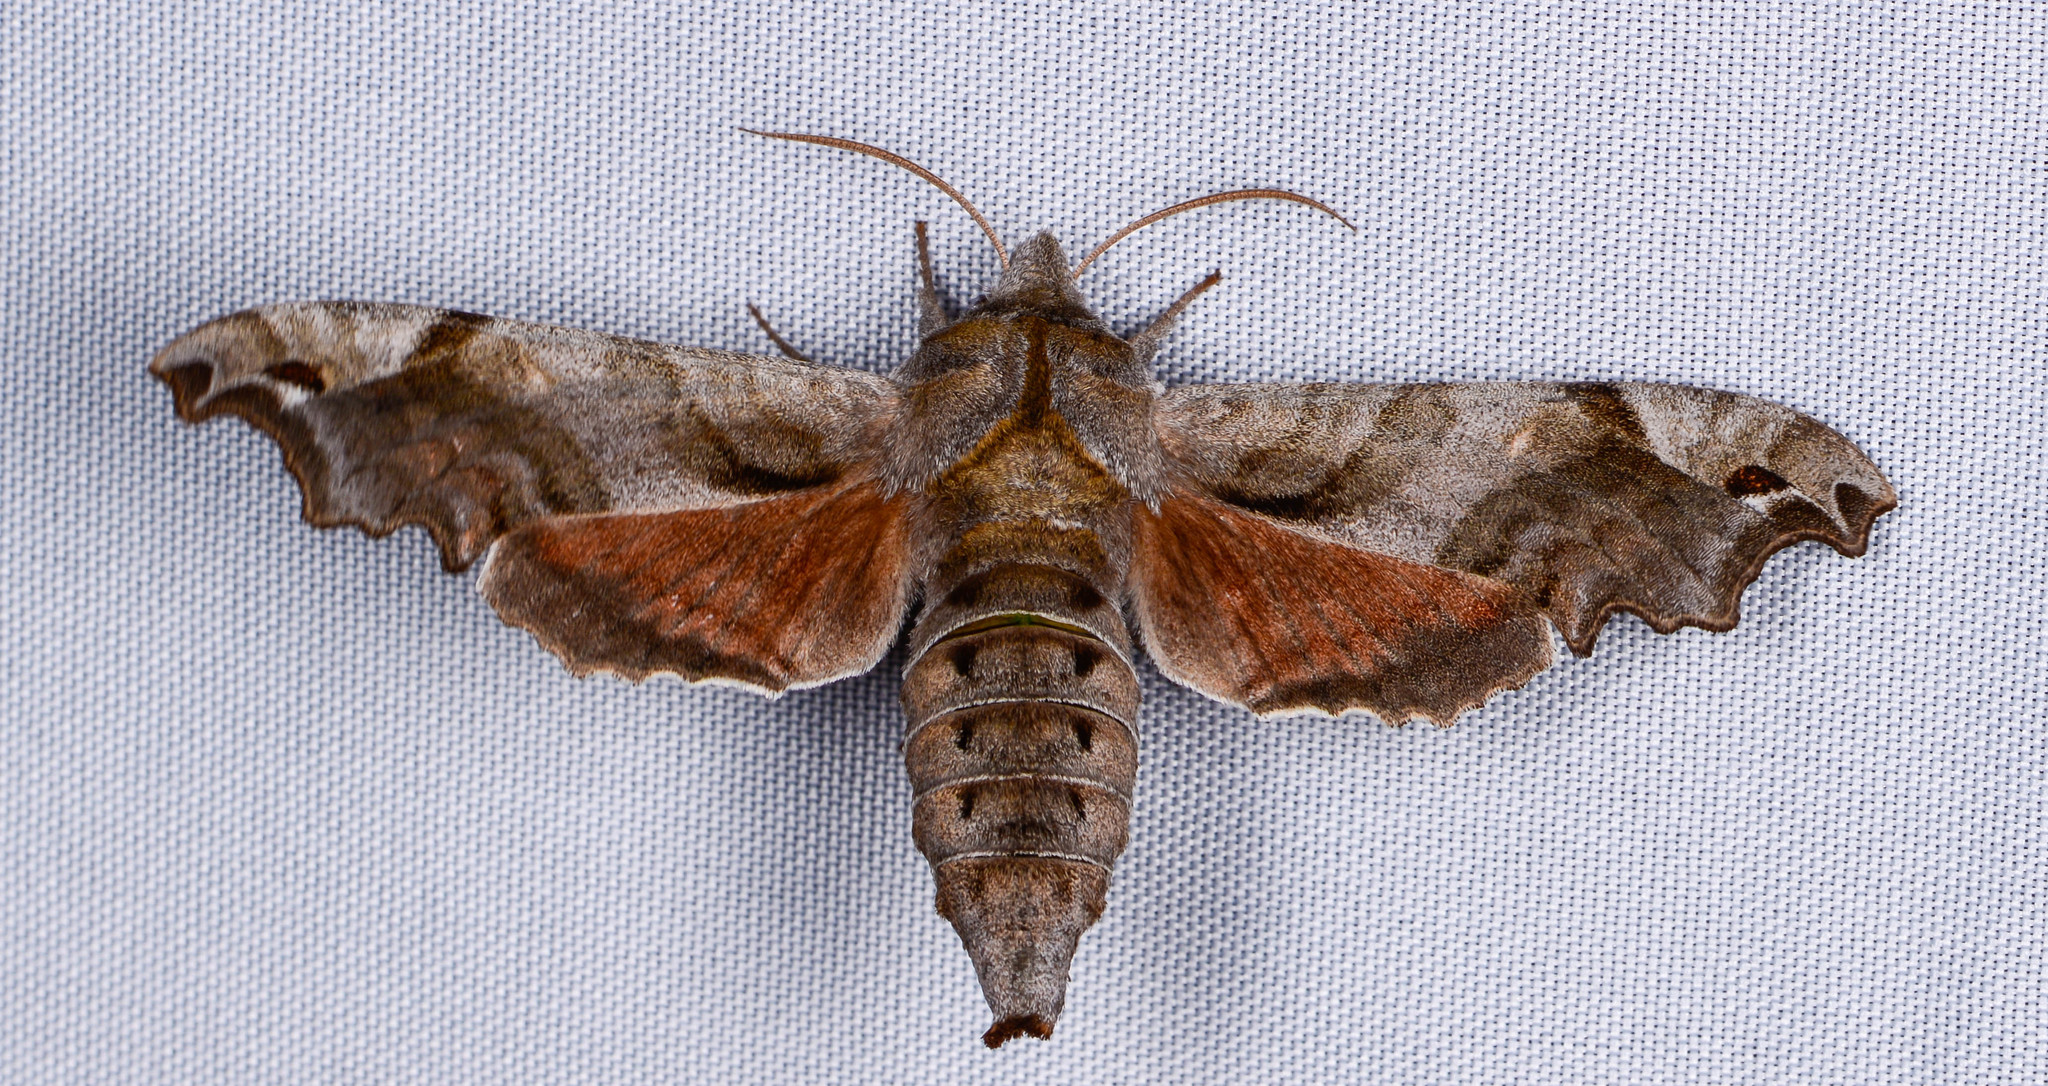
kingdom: Animalia
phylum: Arthropoda
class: Insecta
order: Lepidoptera
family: Sphingidae
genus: Deidamia
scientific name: Deidamia inscriptum
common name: Lettered sphinx
